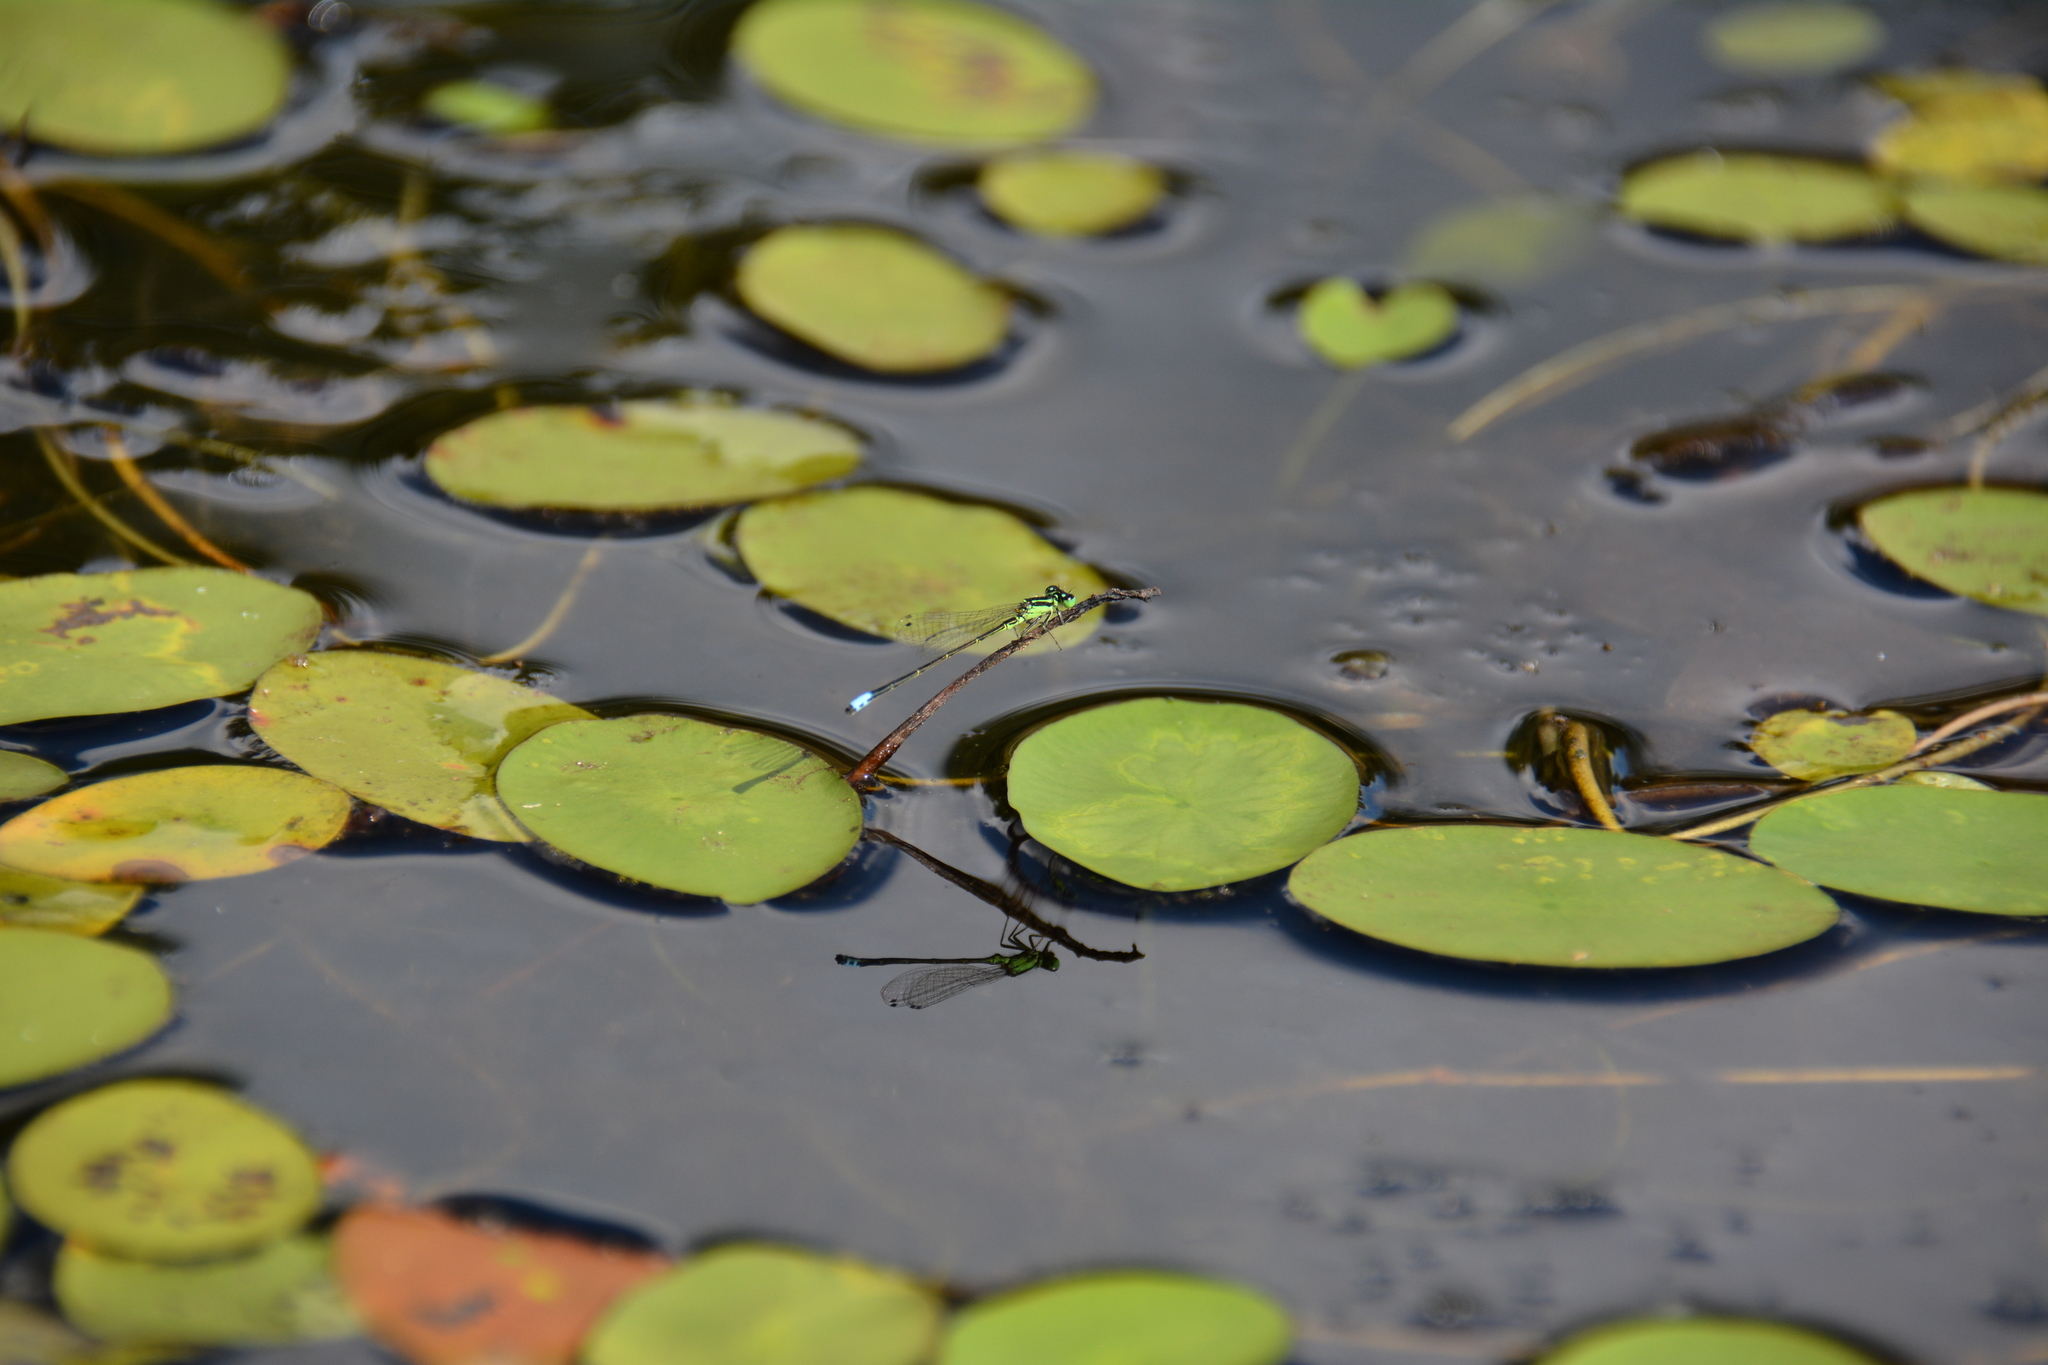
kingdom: Animalia
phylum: Arthropoda
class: Insecta
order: Odonata
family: Coenagrionidae
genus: Ischnura
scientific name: Ischnura verticalis
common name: Eastern forktail
